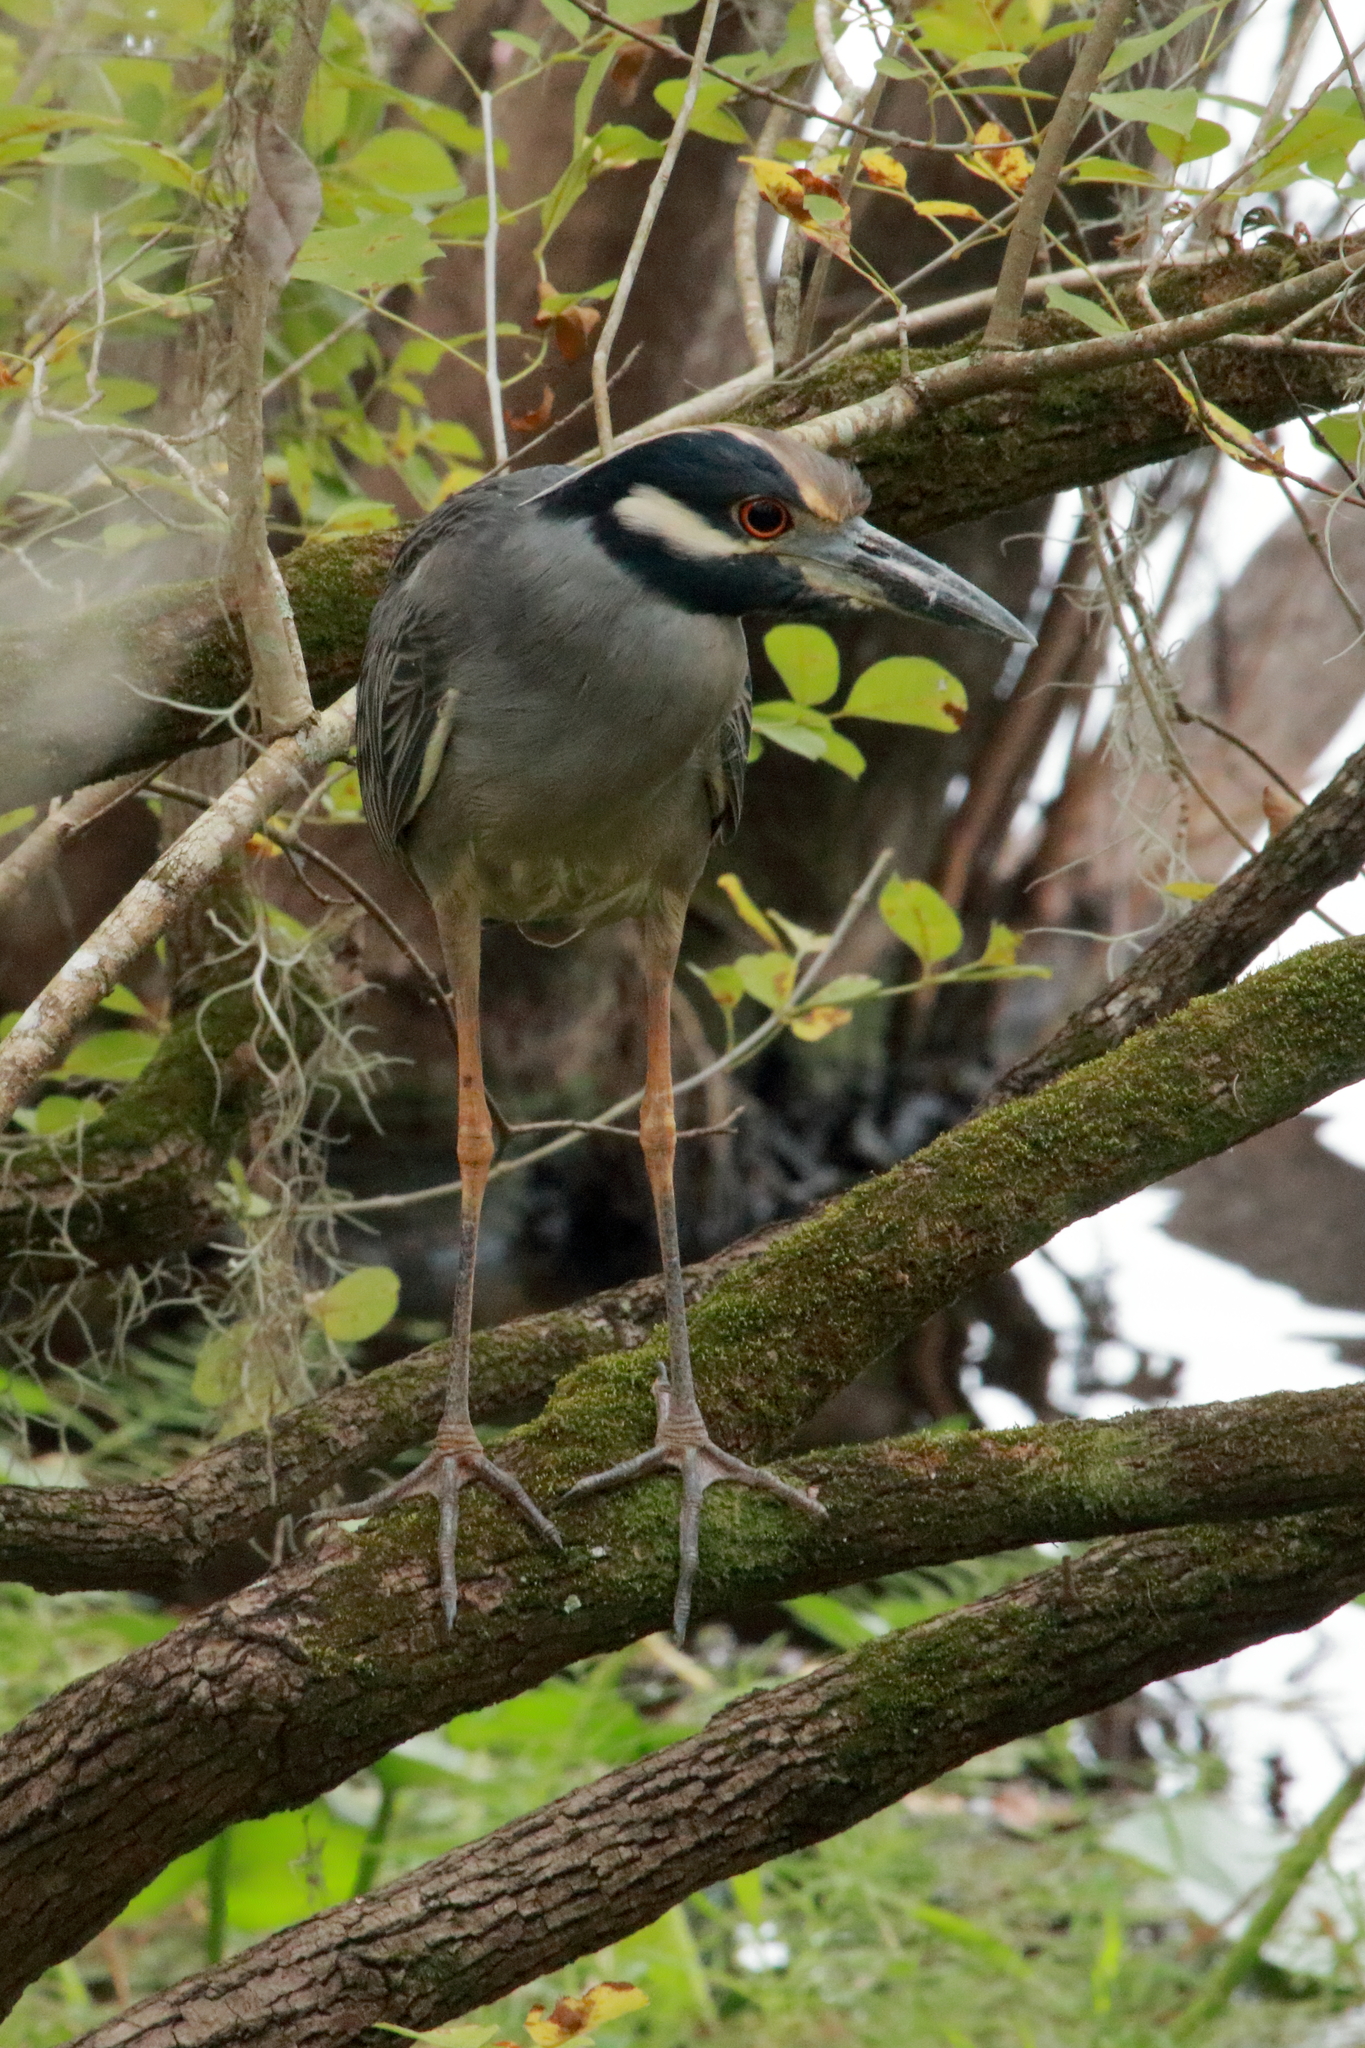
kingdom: Animalia
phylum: Chordata
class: Aves
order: Pelecaniformes
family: Ardeidae
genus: Nyctanassa
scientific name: Nyctanassa violacea
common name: Yellow-crowned night heron
